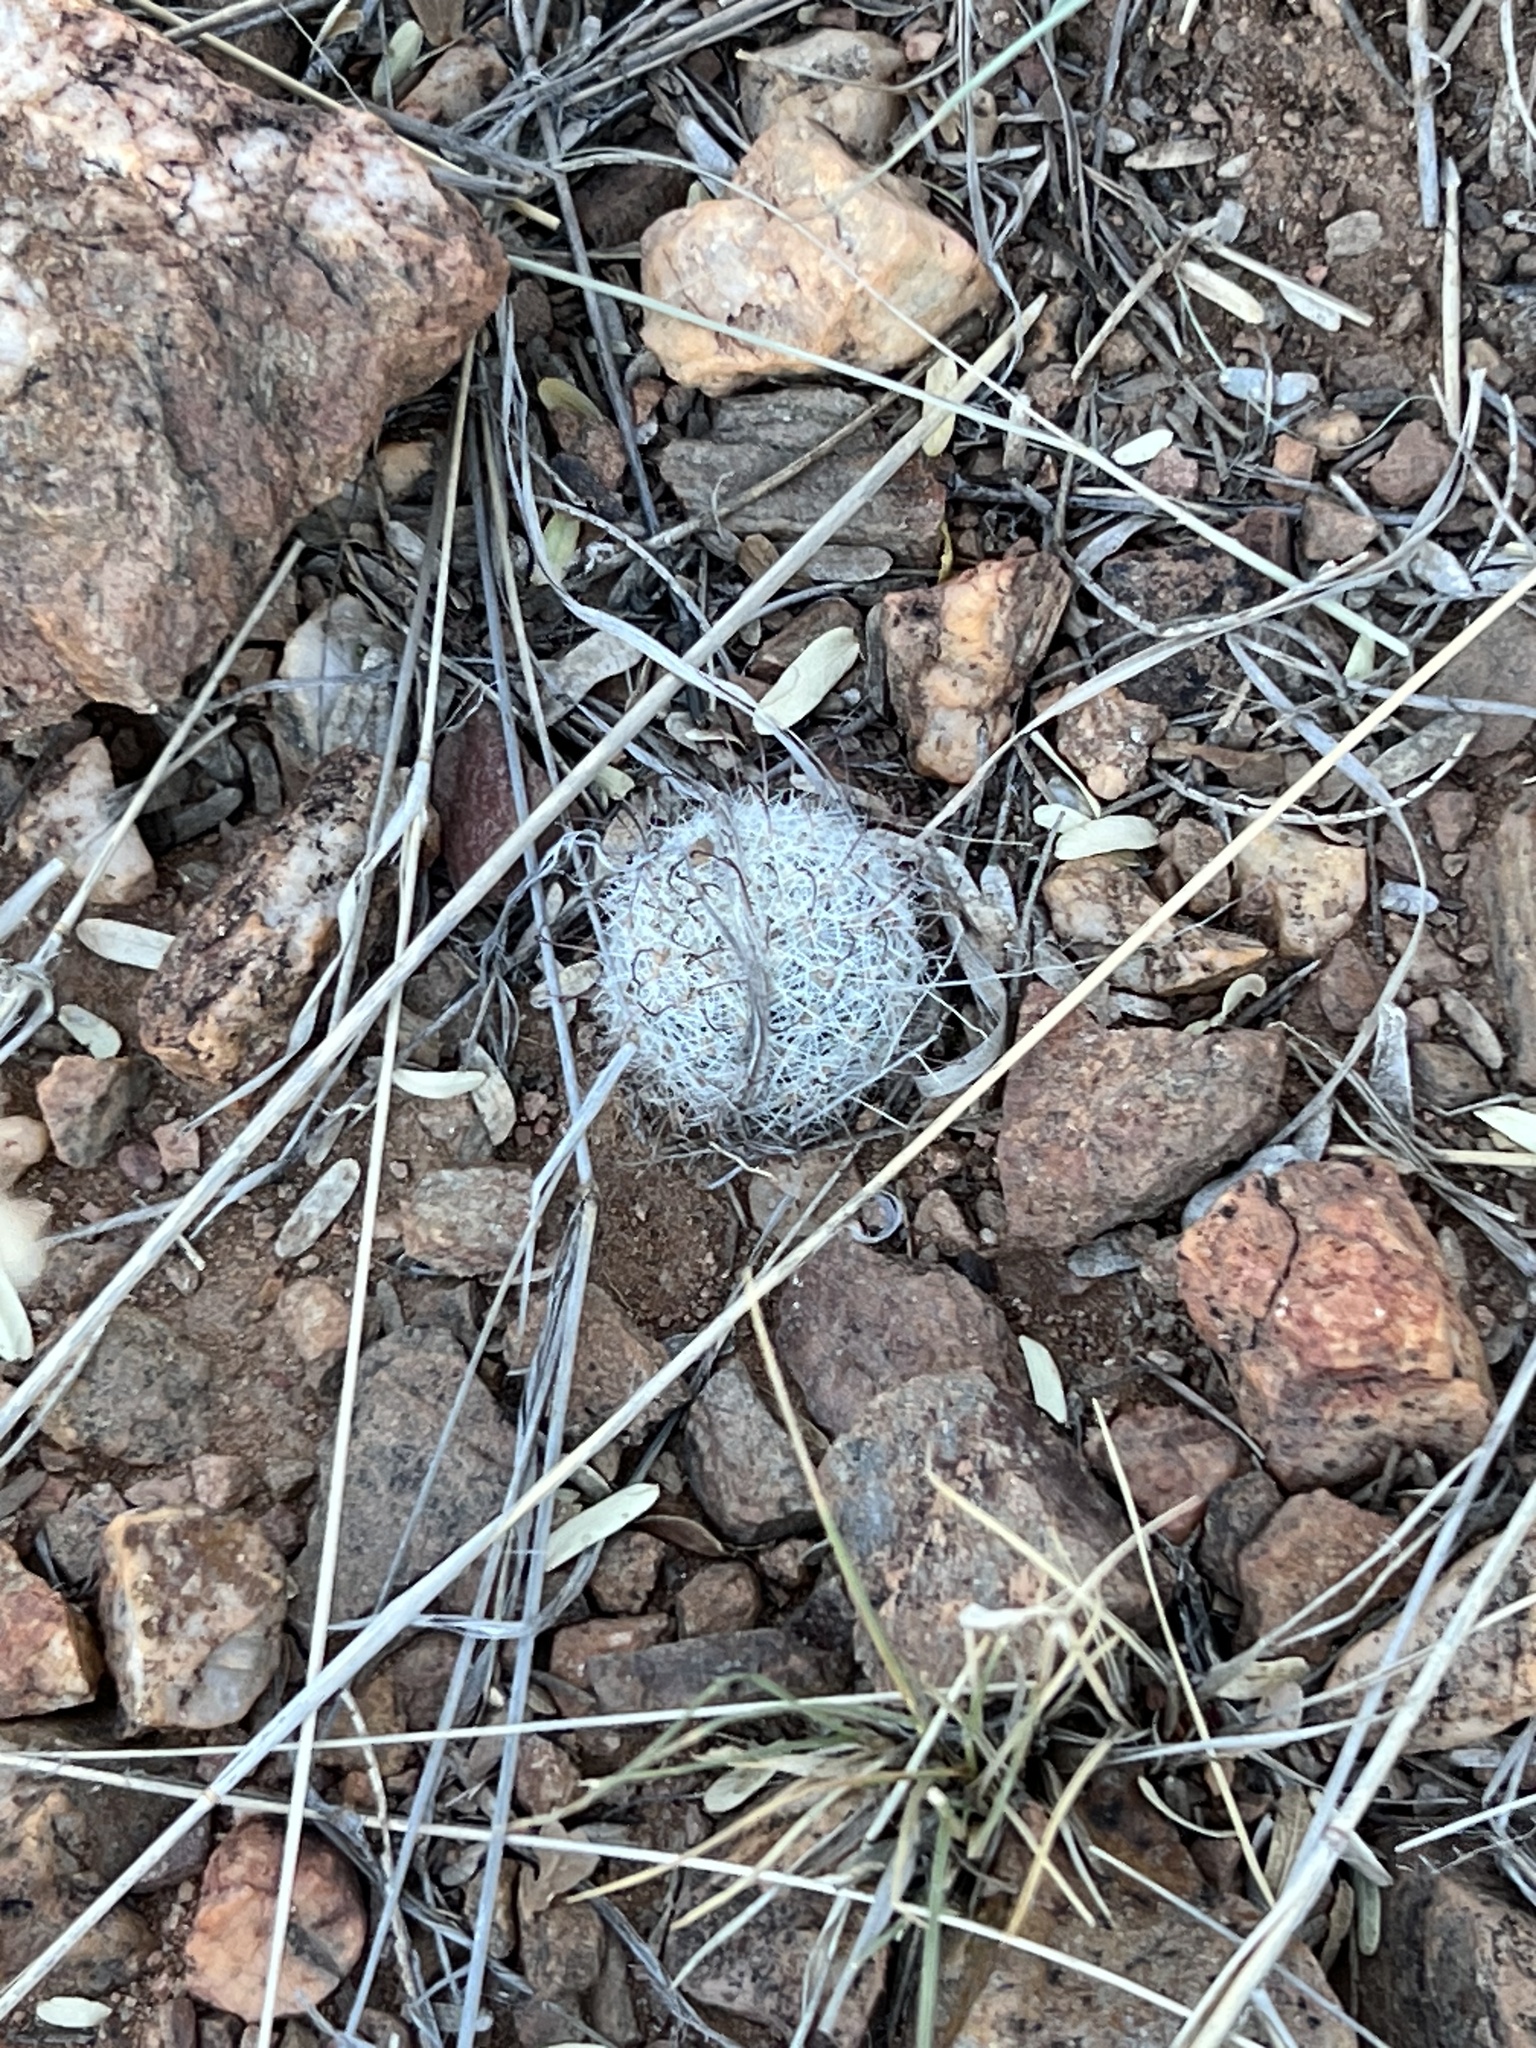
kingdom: Plantae
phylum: Tracheophyta
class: Magnoliopsida
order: Caryophyllales
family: Cactaceae
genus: Cochemiea
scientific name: Cochemiea grahamii
